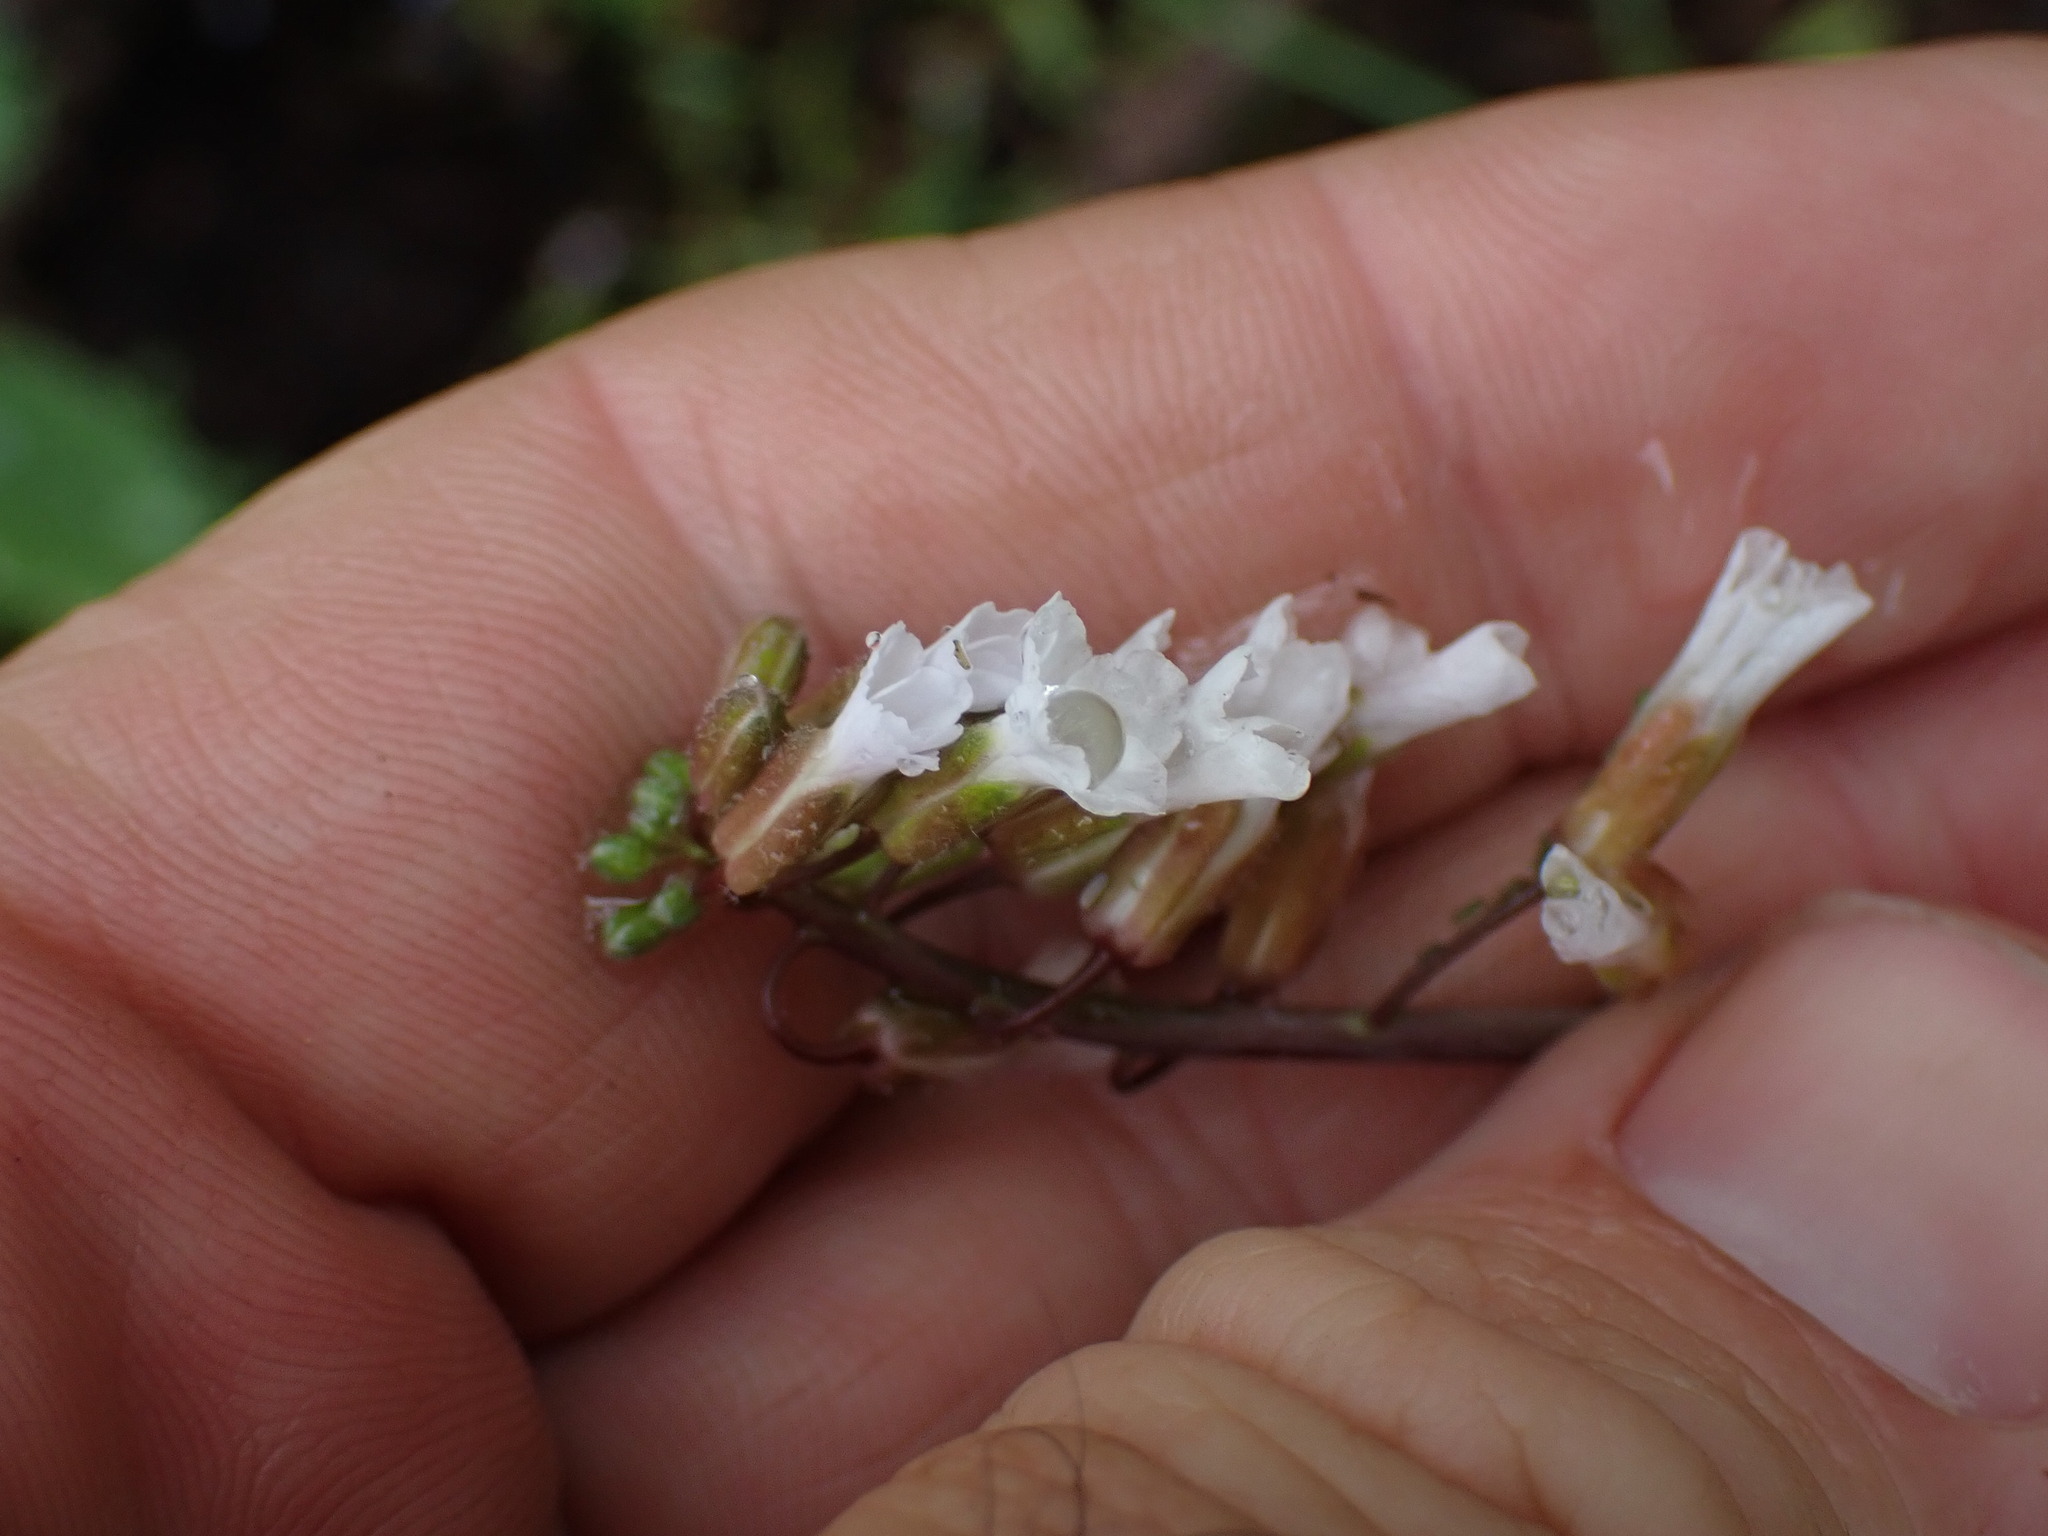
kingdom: Plantae
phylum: Tracheophyta
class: Magnoliopsida
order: Brassicales
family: Brassicaceae
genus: Boechera
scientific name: Boechera retrofracta
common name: Dangling suncress
